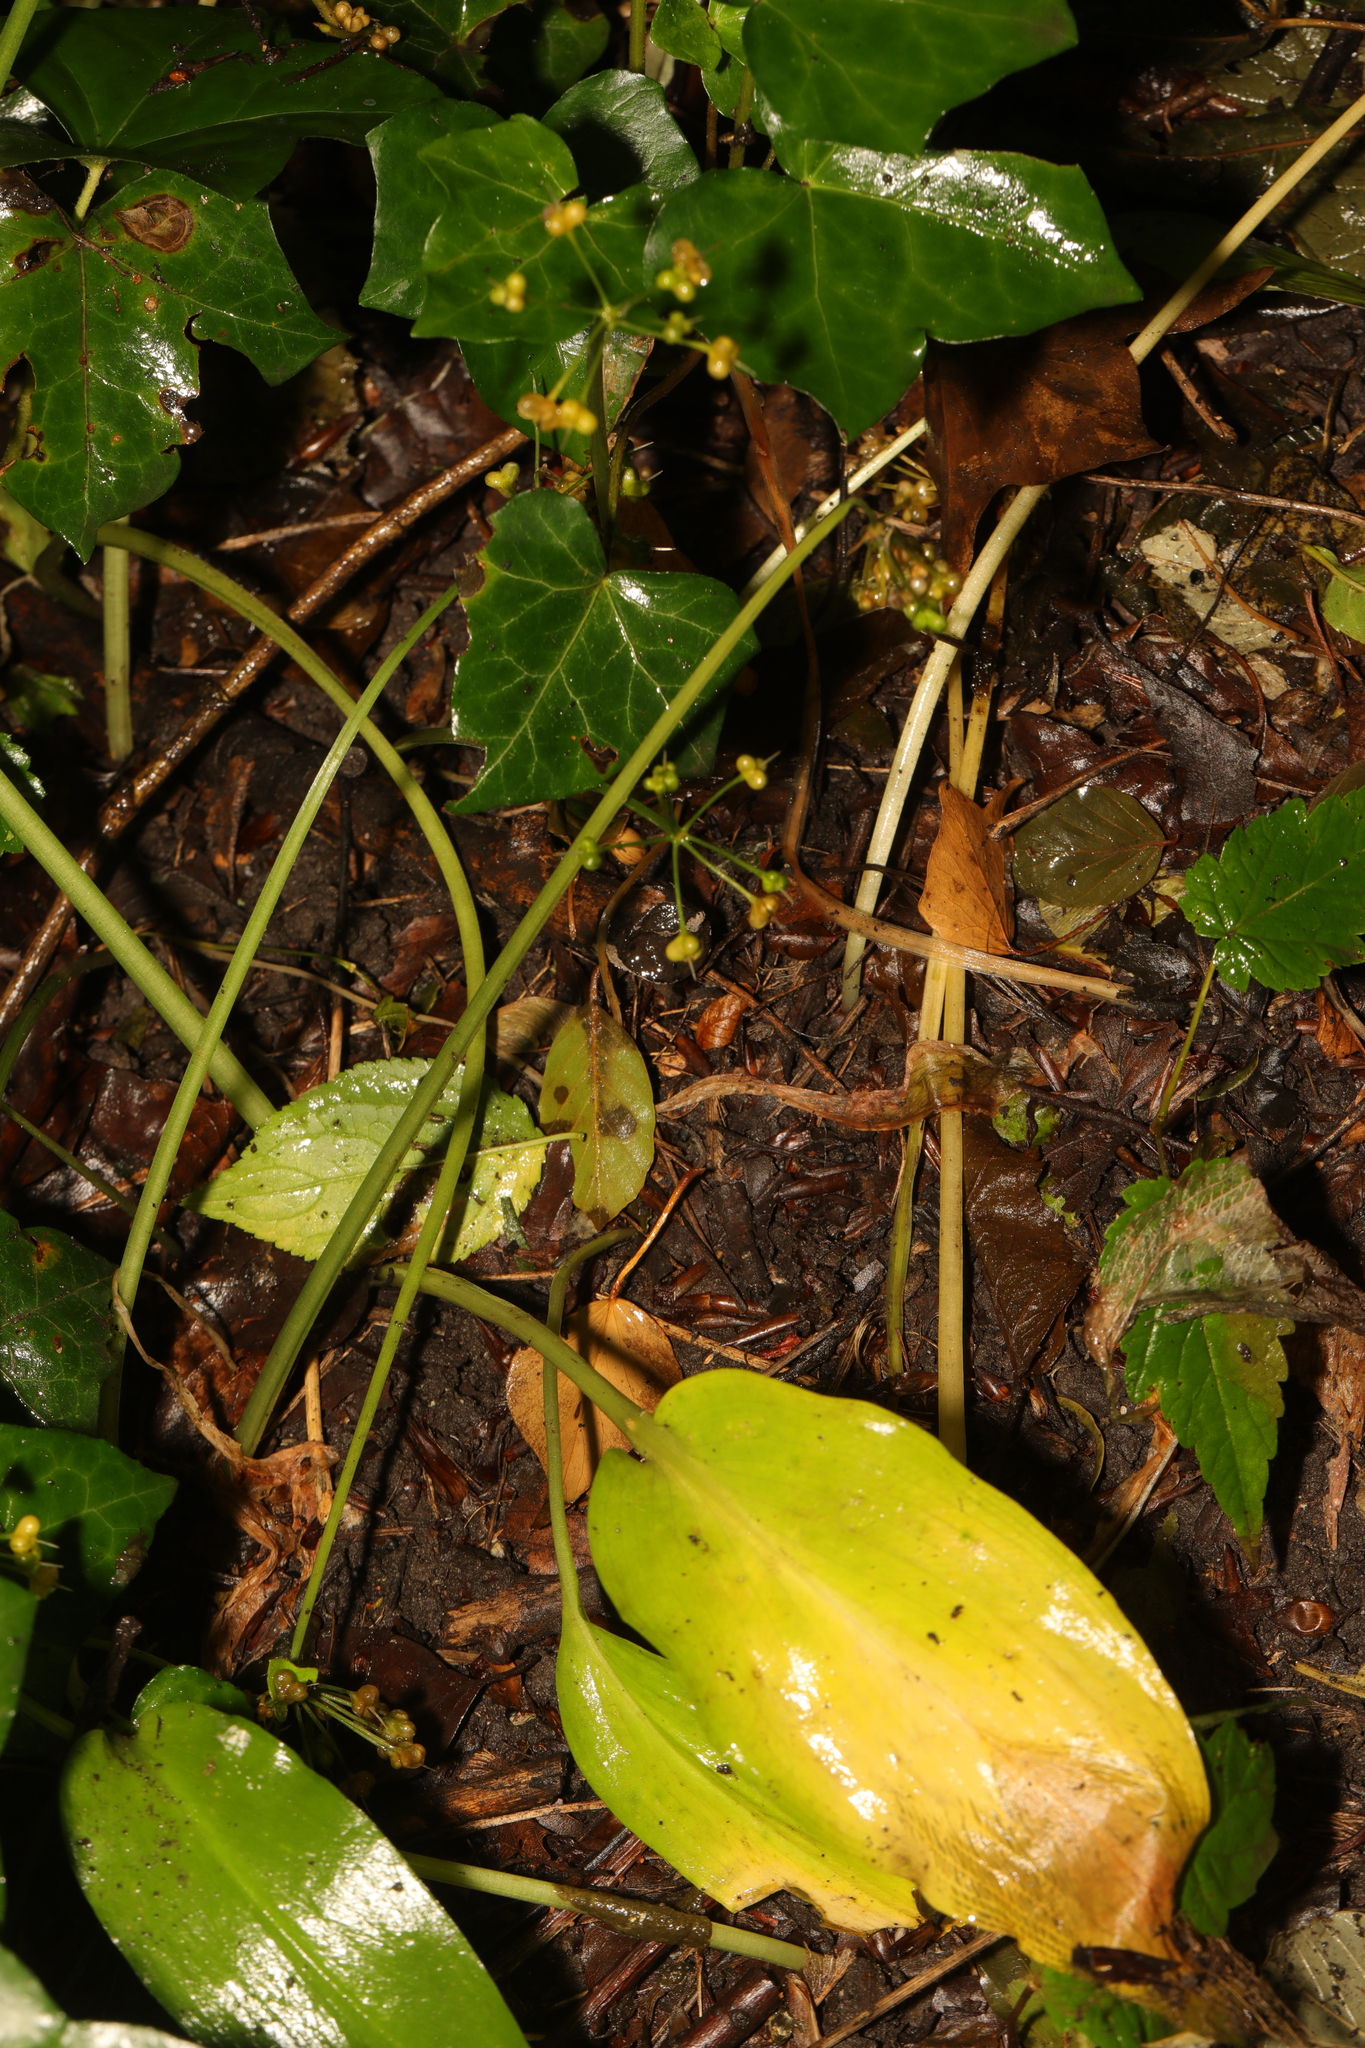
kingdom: Plantae
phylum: Tracheophyta
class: Liliopsida
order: Asparagales
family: Amaryllidaceae
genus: Allium
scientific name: Allium ursinum
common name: Ramsons
